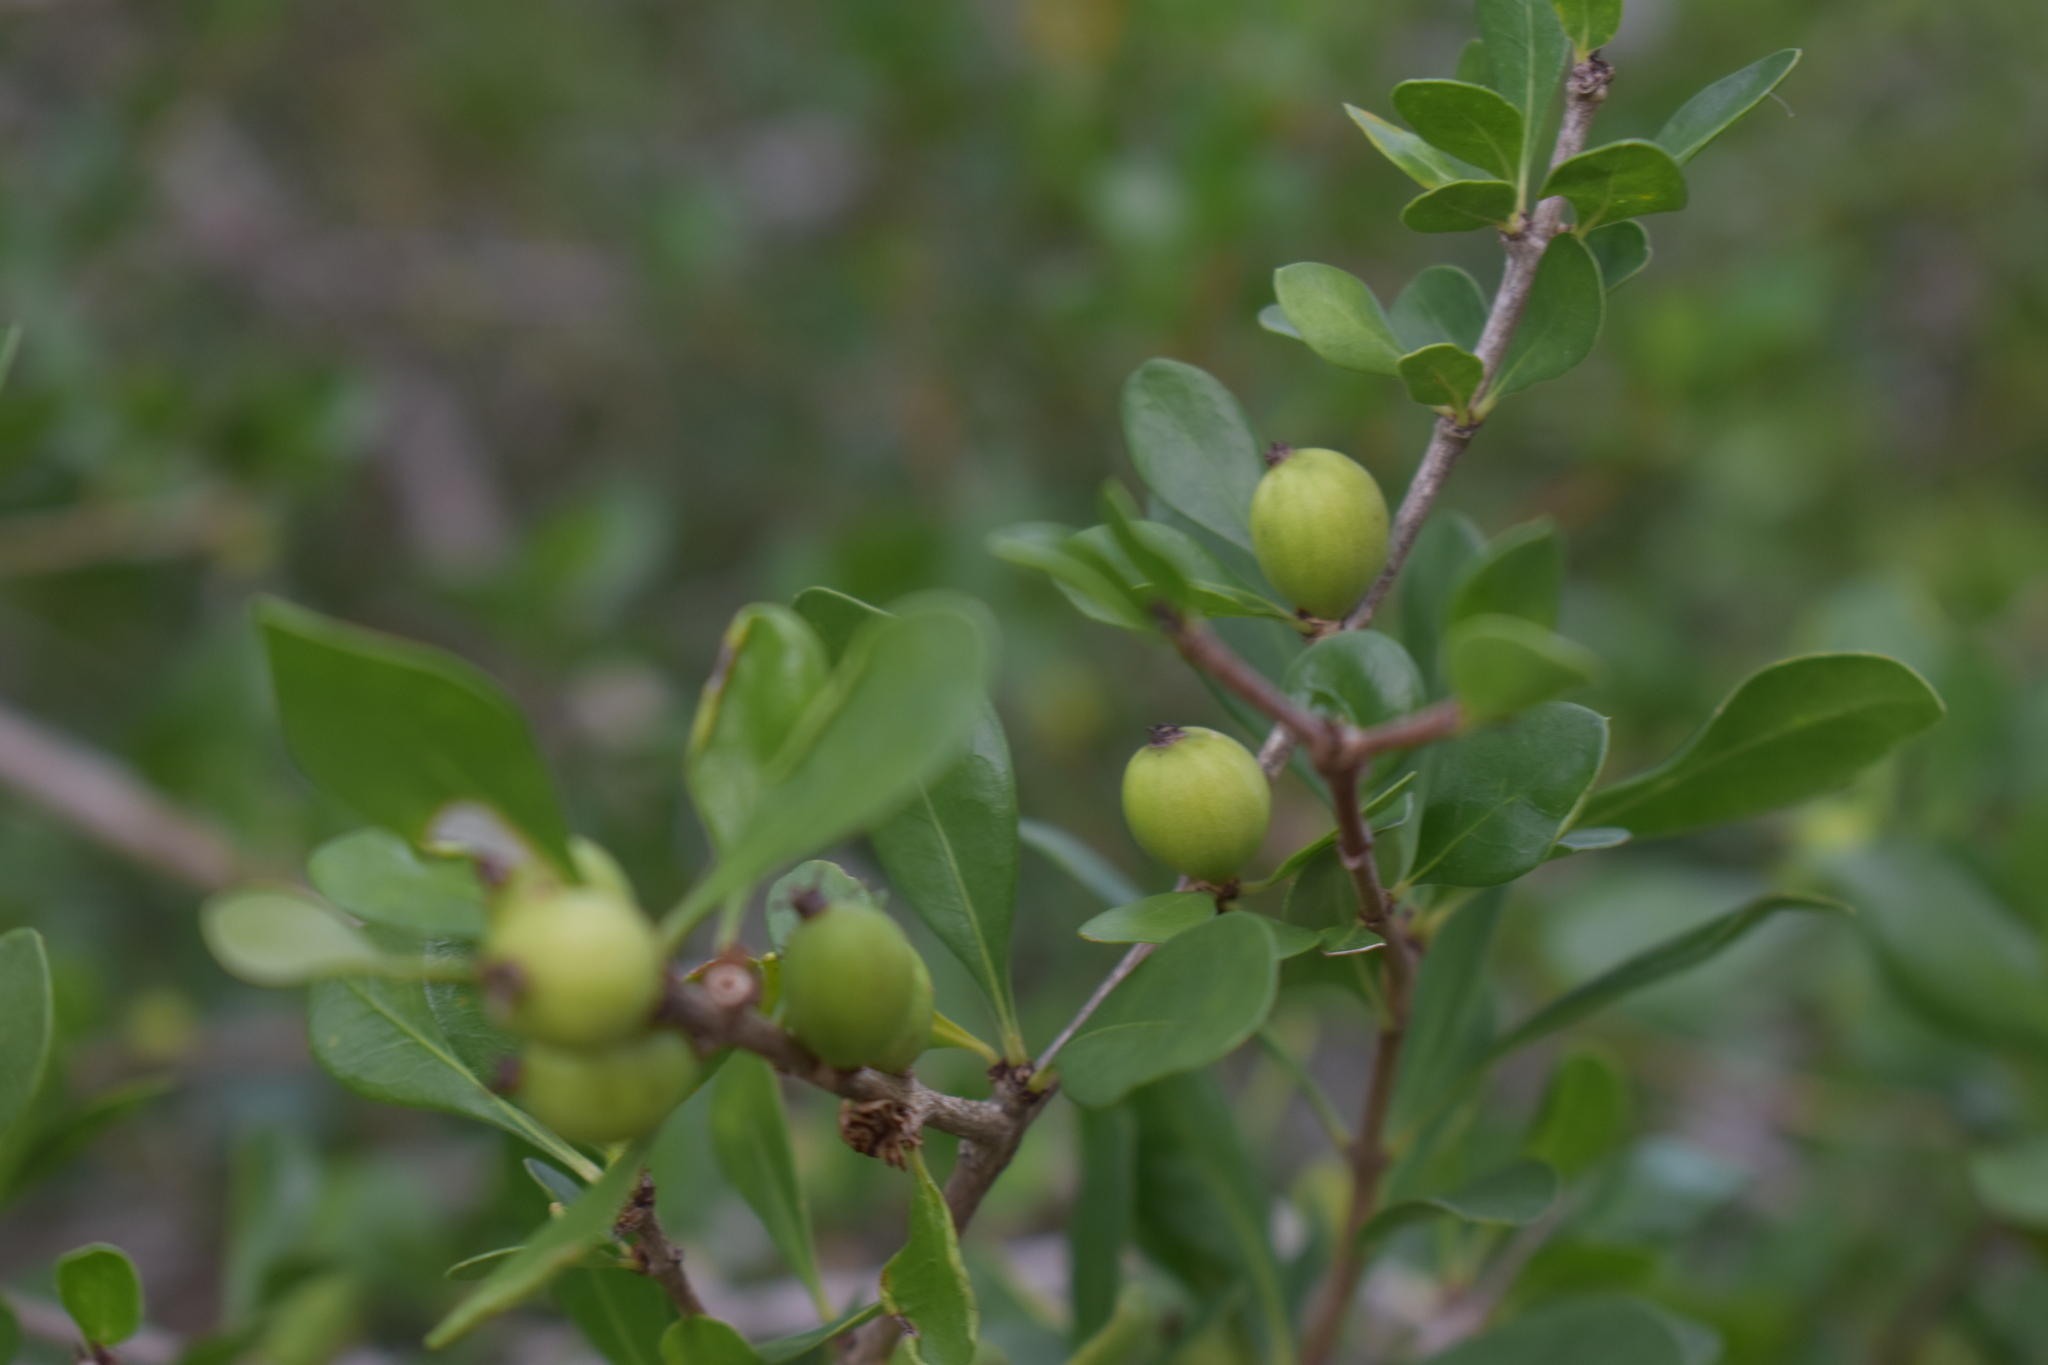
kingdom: Plantae
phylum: Tracheophyta
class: Magnoliopsida
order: Gentianales
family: Rubiaceae
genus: Randia
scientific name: Randia aculeata
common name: Inkberry
